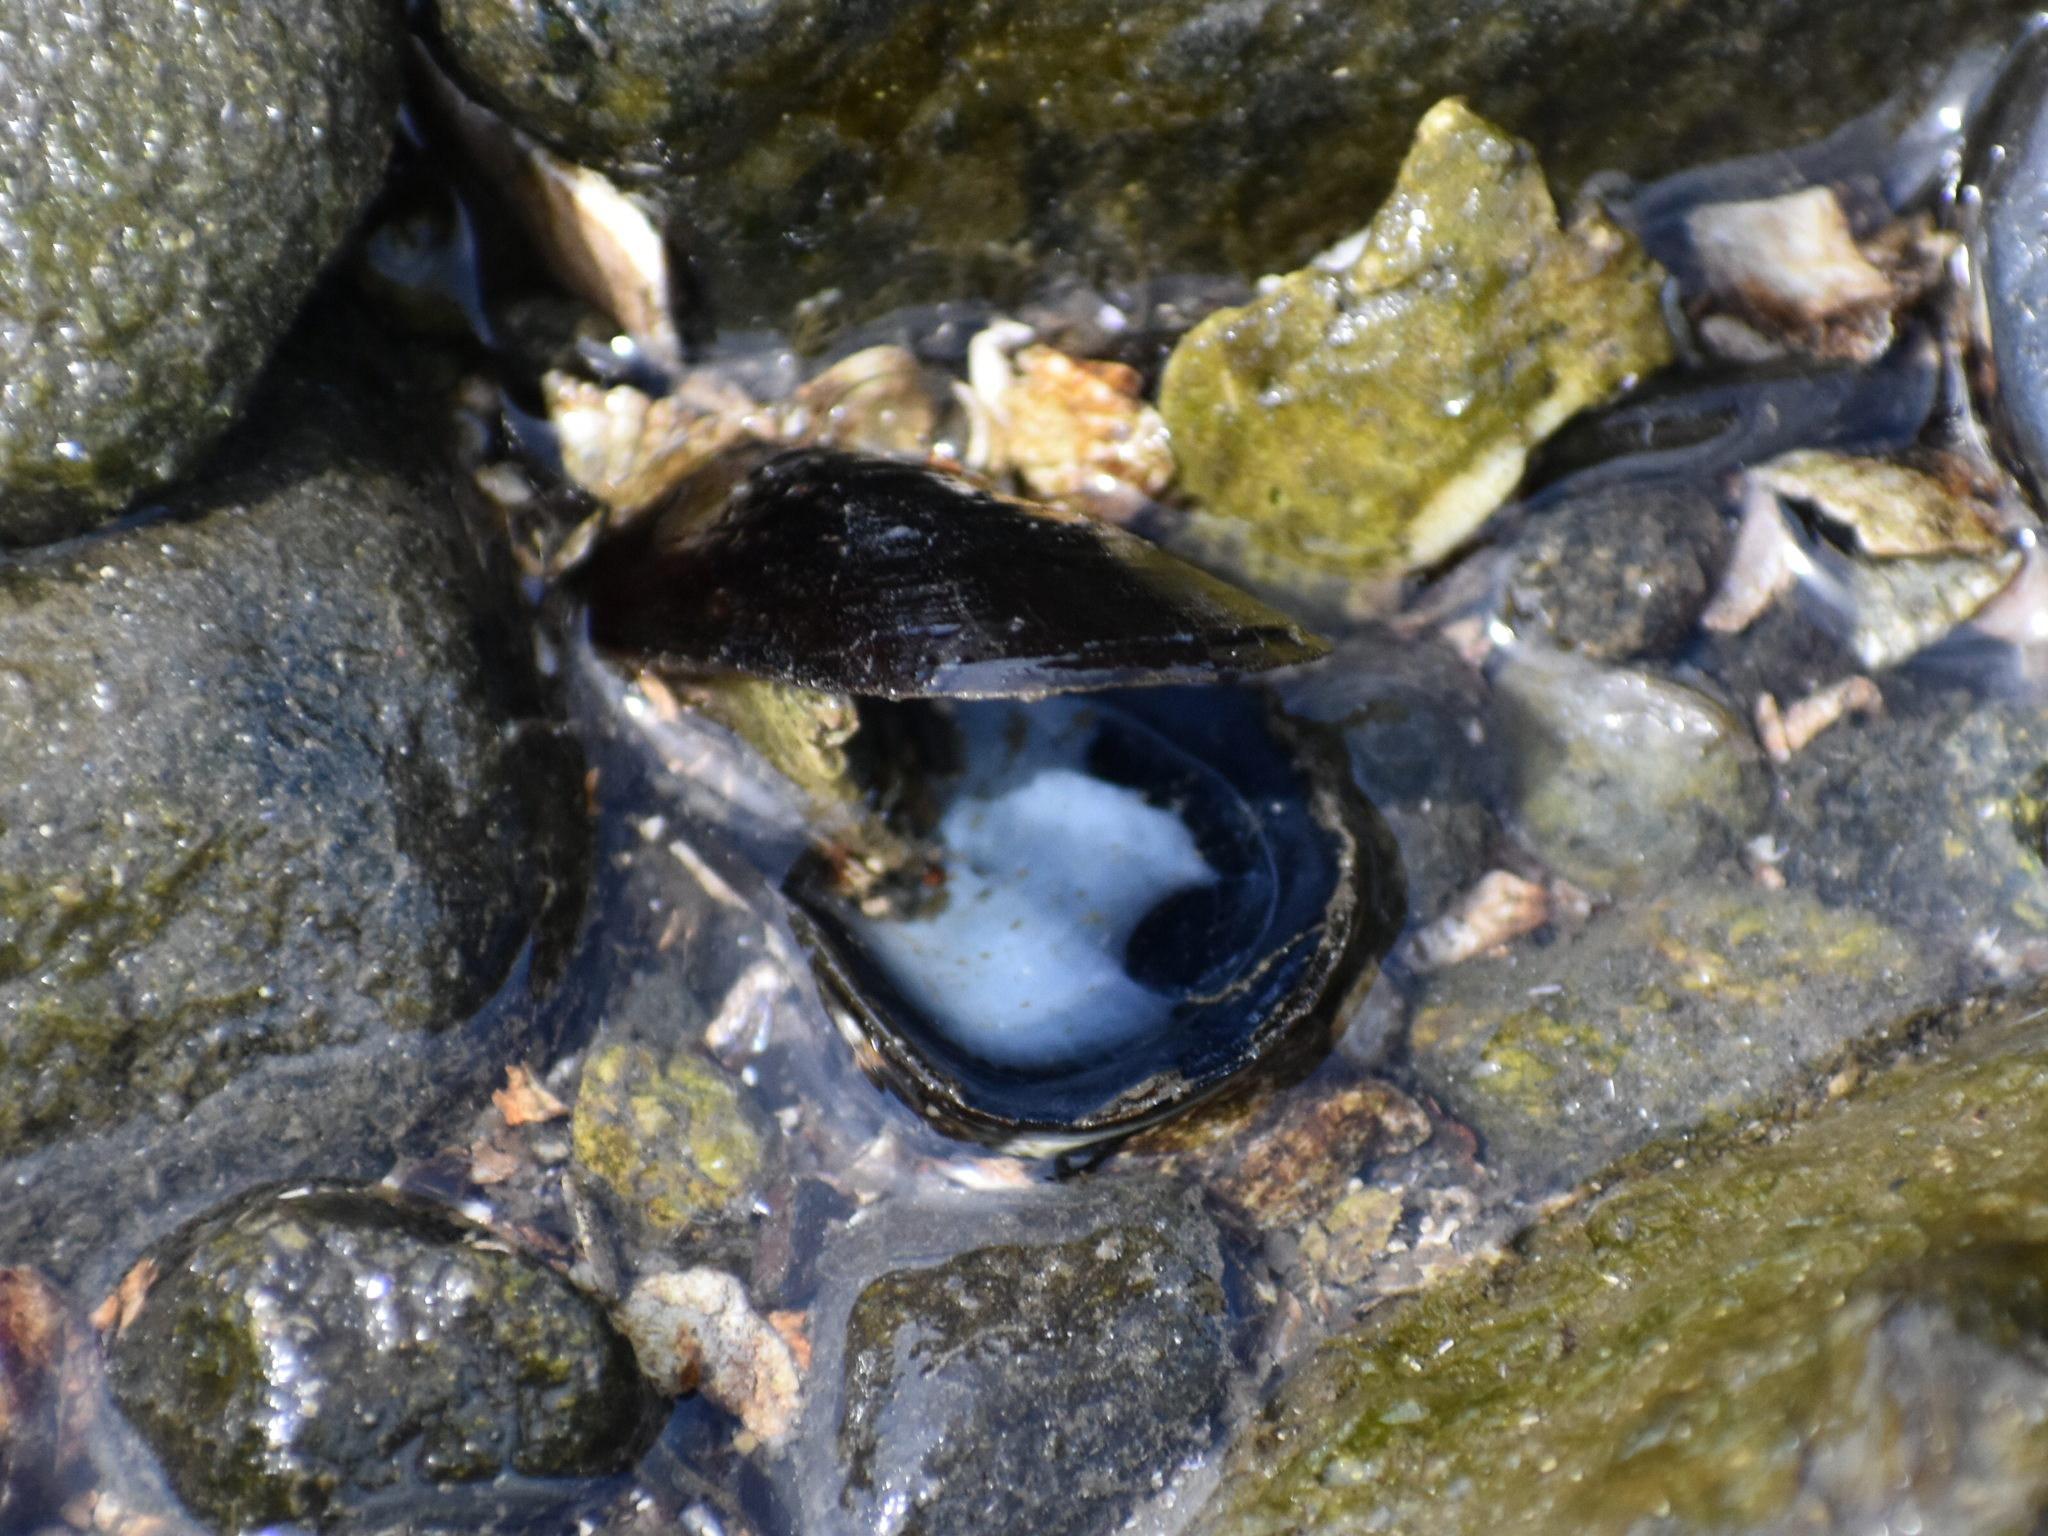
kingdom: Animalia
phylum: Mollusca
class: Bivalvia
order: Mytilida
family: Mytilidae
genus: Mytilus
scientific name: Mytilus edulis
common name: Blue mussel
